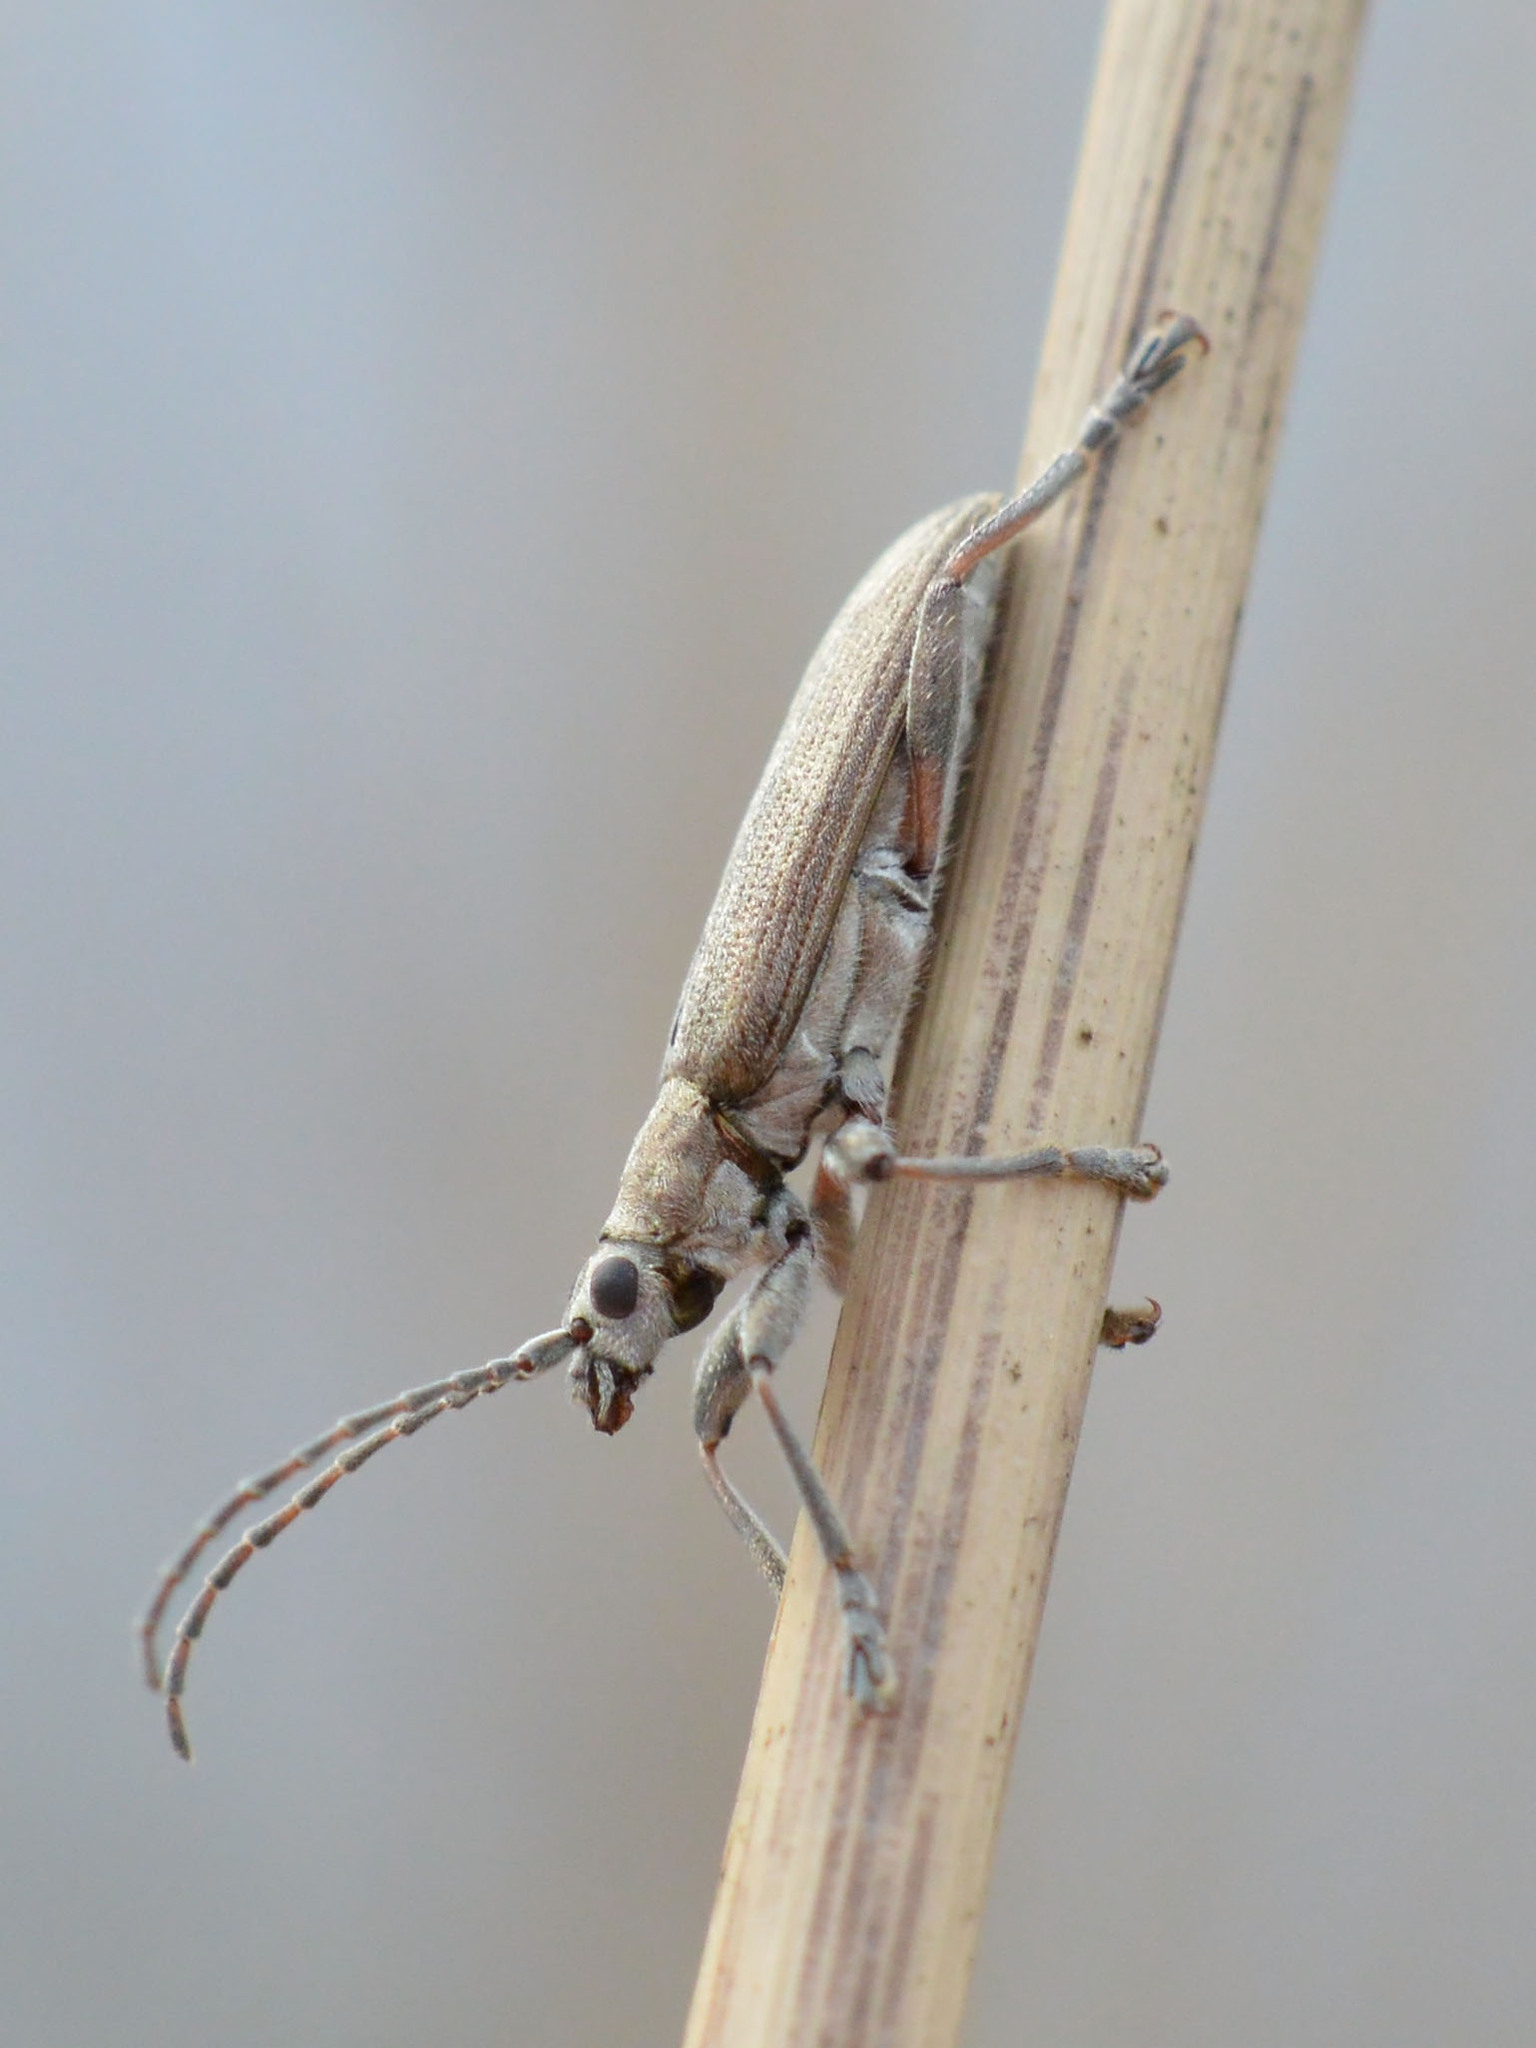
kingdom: Animalia
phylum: Arthropoda
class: Insecta
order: Coleoptera
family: Chrysomelidae
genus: Donacia
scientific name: Donacia cinerea
